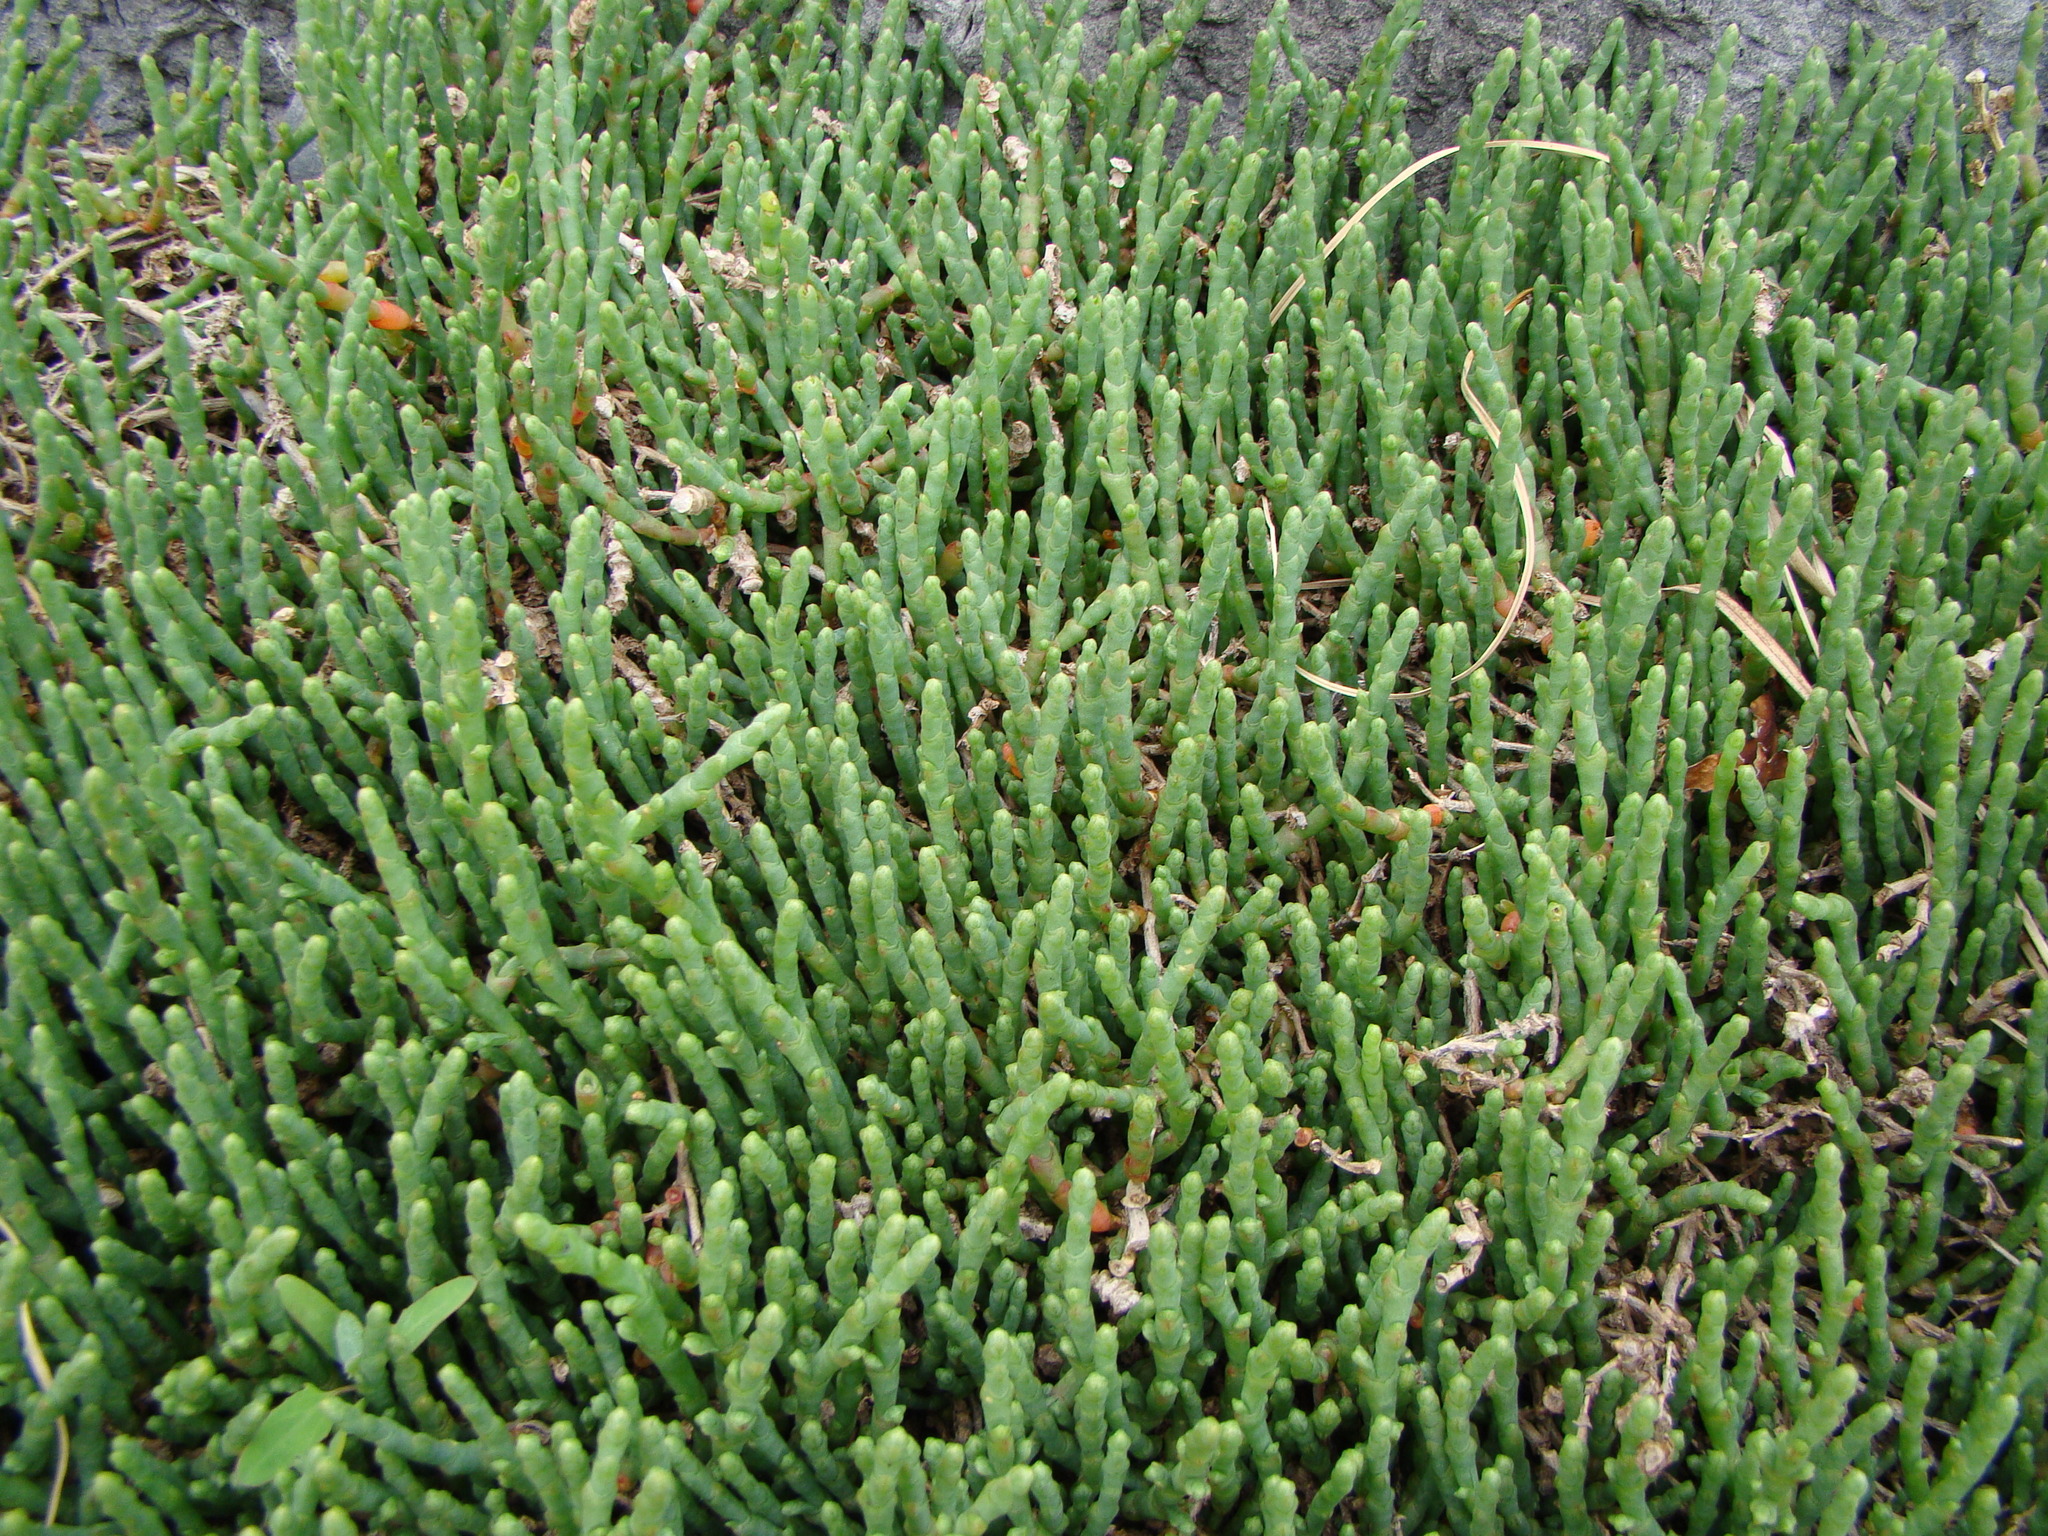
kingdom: Plantae
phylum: Tracheophyta
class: Magnoliopsida
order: Caryophyllales
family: Amaranthaceae
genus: Salicornia
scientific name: Salicornia quinqueflora
